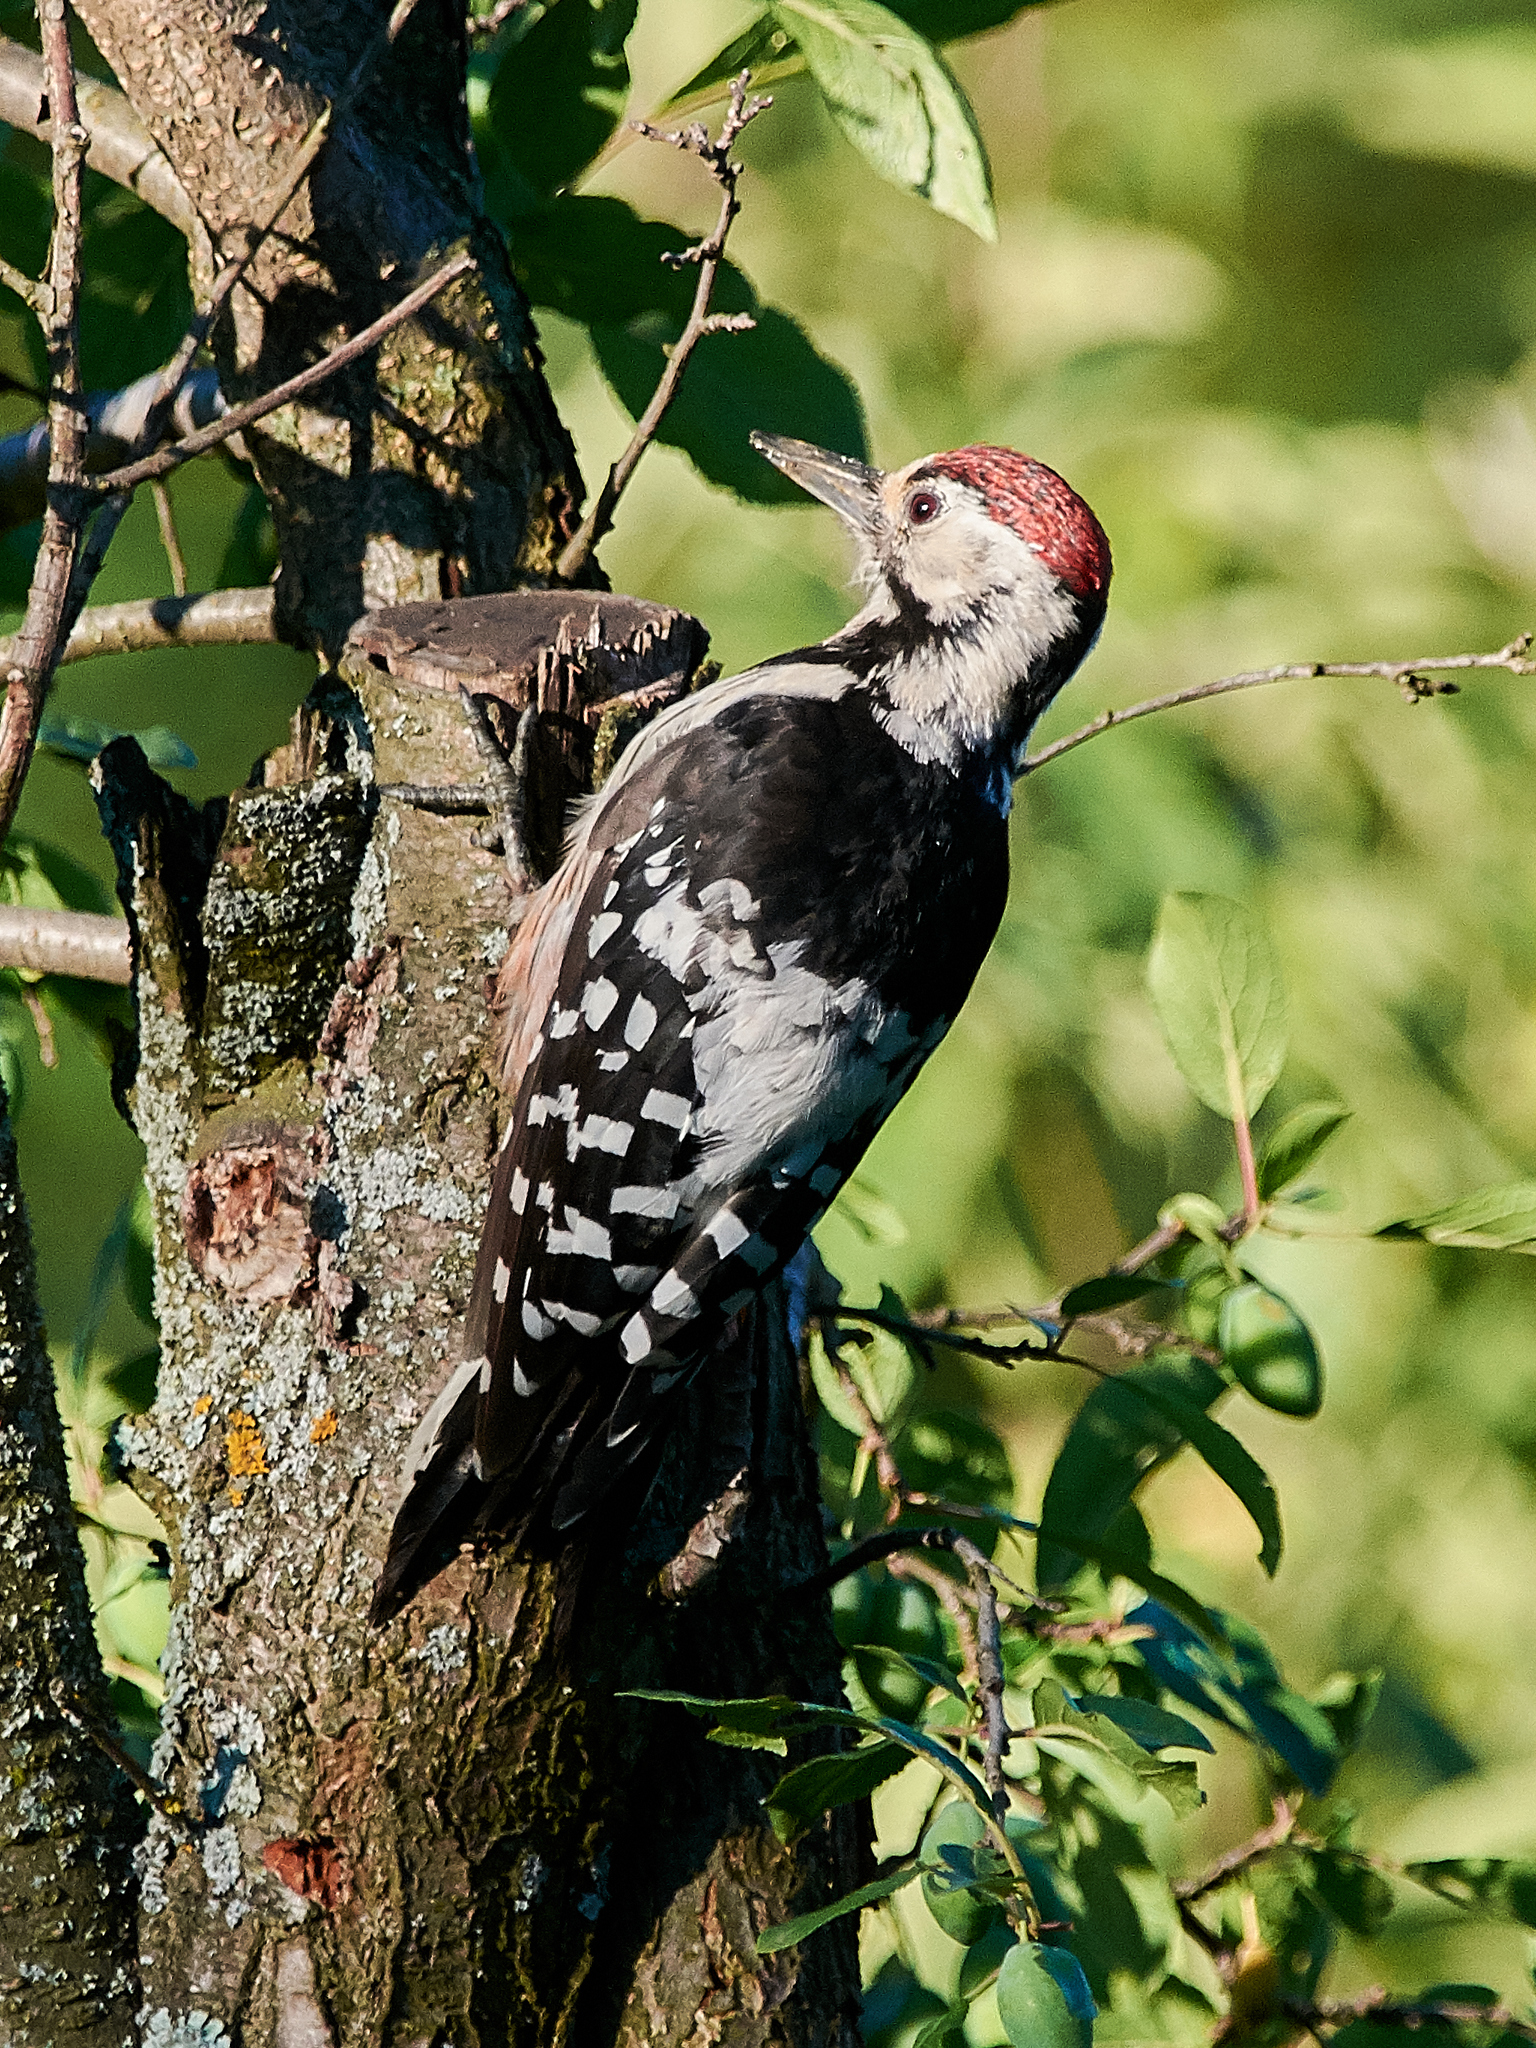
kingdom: Animalia
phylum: Chordata
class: Aves
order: Piciformes
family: Picidae
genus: Dendrocopos
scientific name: Dendrocopos leucotos
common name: White-backed woodpecker
